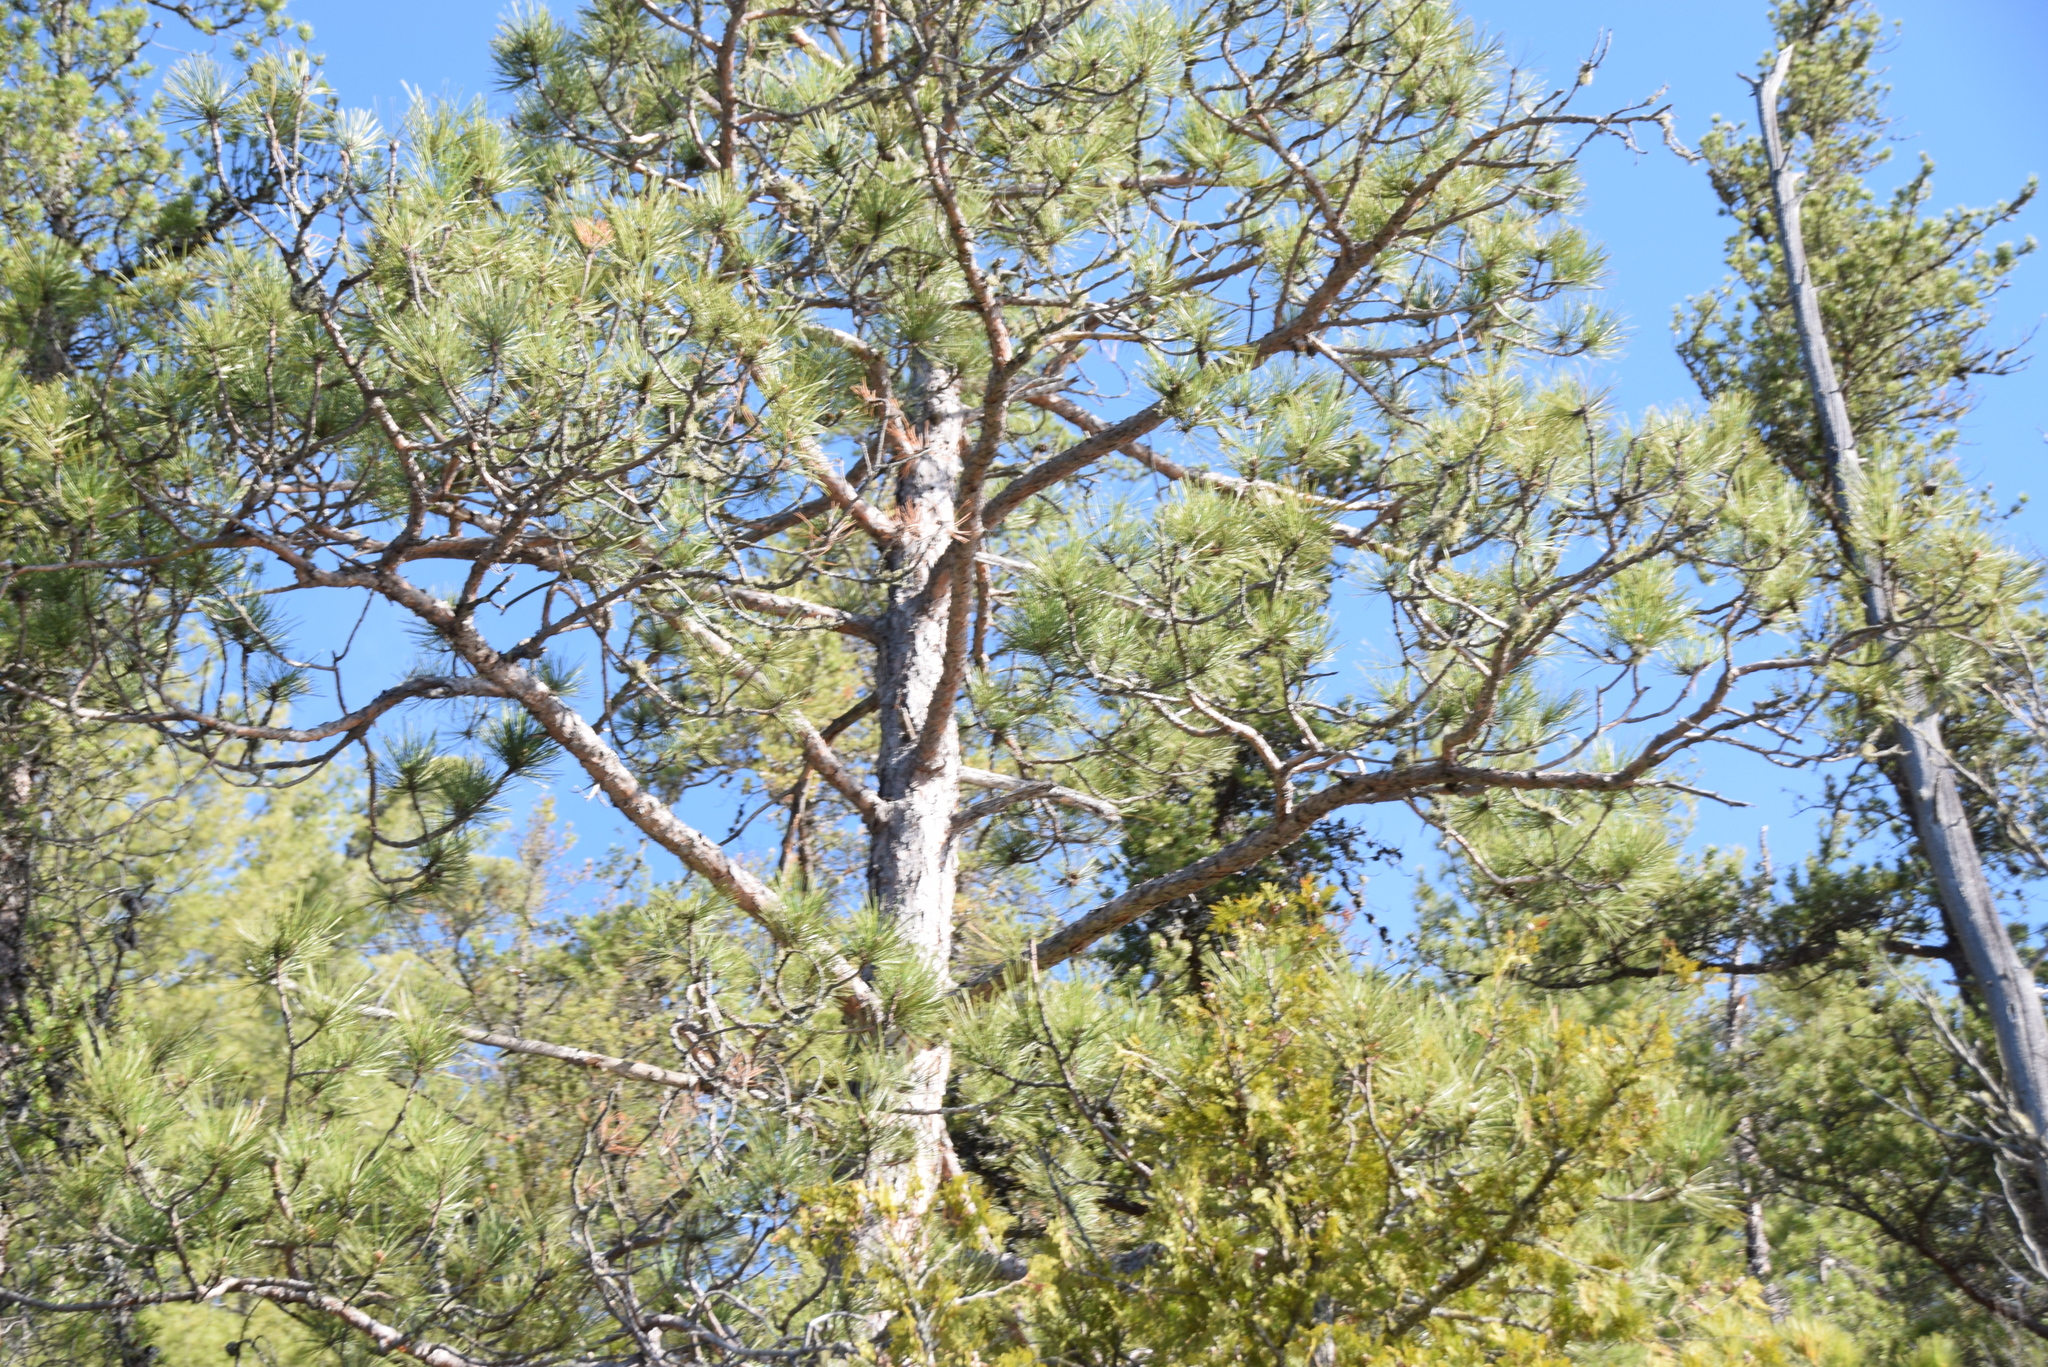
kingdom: Plantae
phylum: Tracheophyta
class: Pinopsida
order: Pinales
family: Pinaceae
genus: Pinus
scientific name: Pinus resinosa
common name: Norway pine
